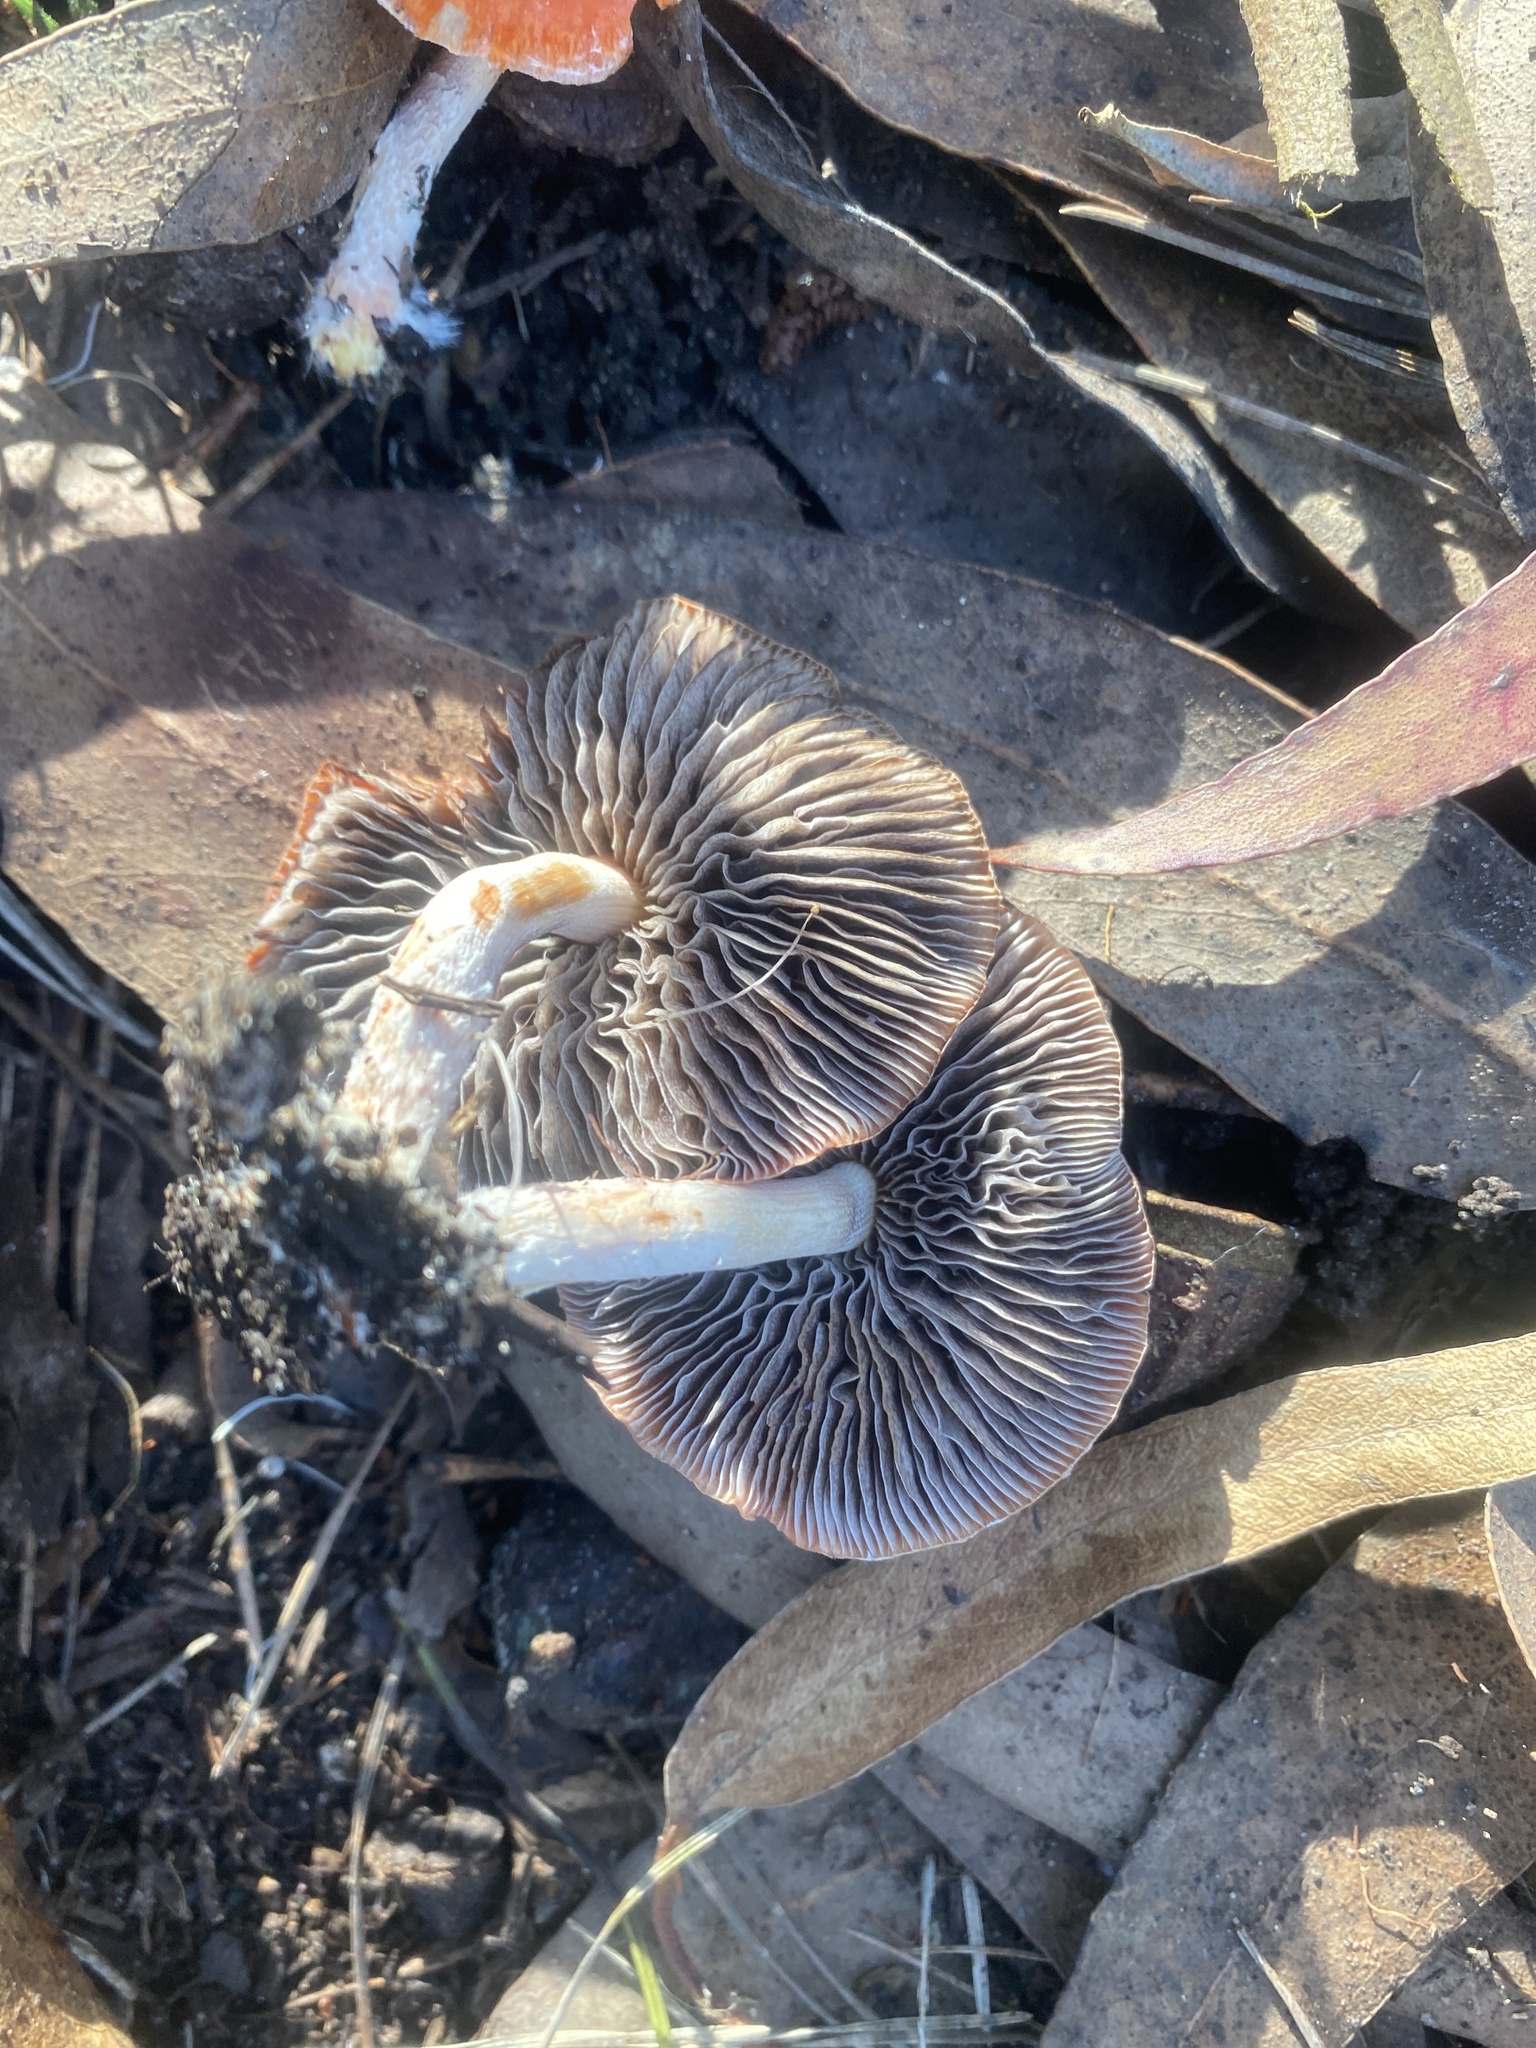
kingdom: Fungi
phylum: Basidiomycota
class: Agaricomycetes
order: Agaricales
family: Strophariaceae
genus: Leratiomyces
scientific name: Leratiomyces ceres
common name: Redlead roundhead
